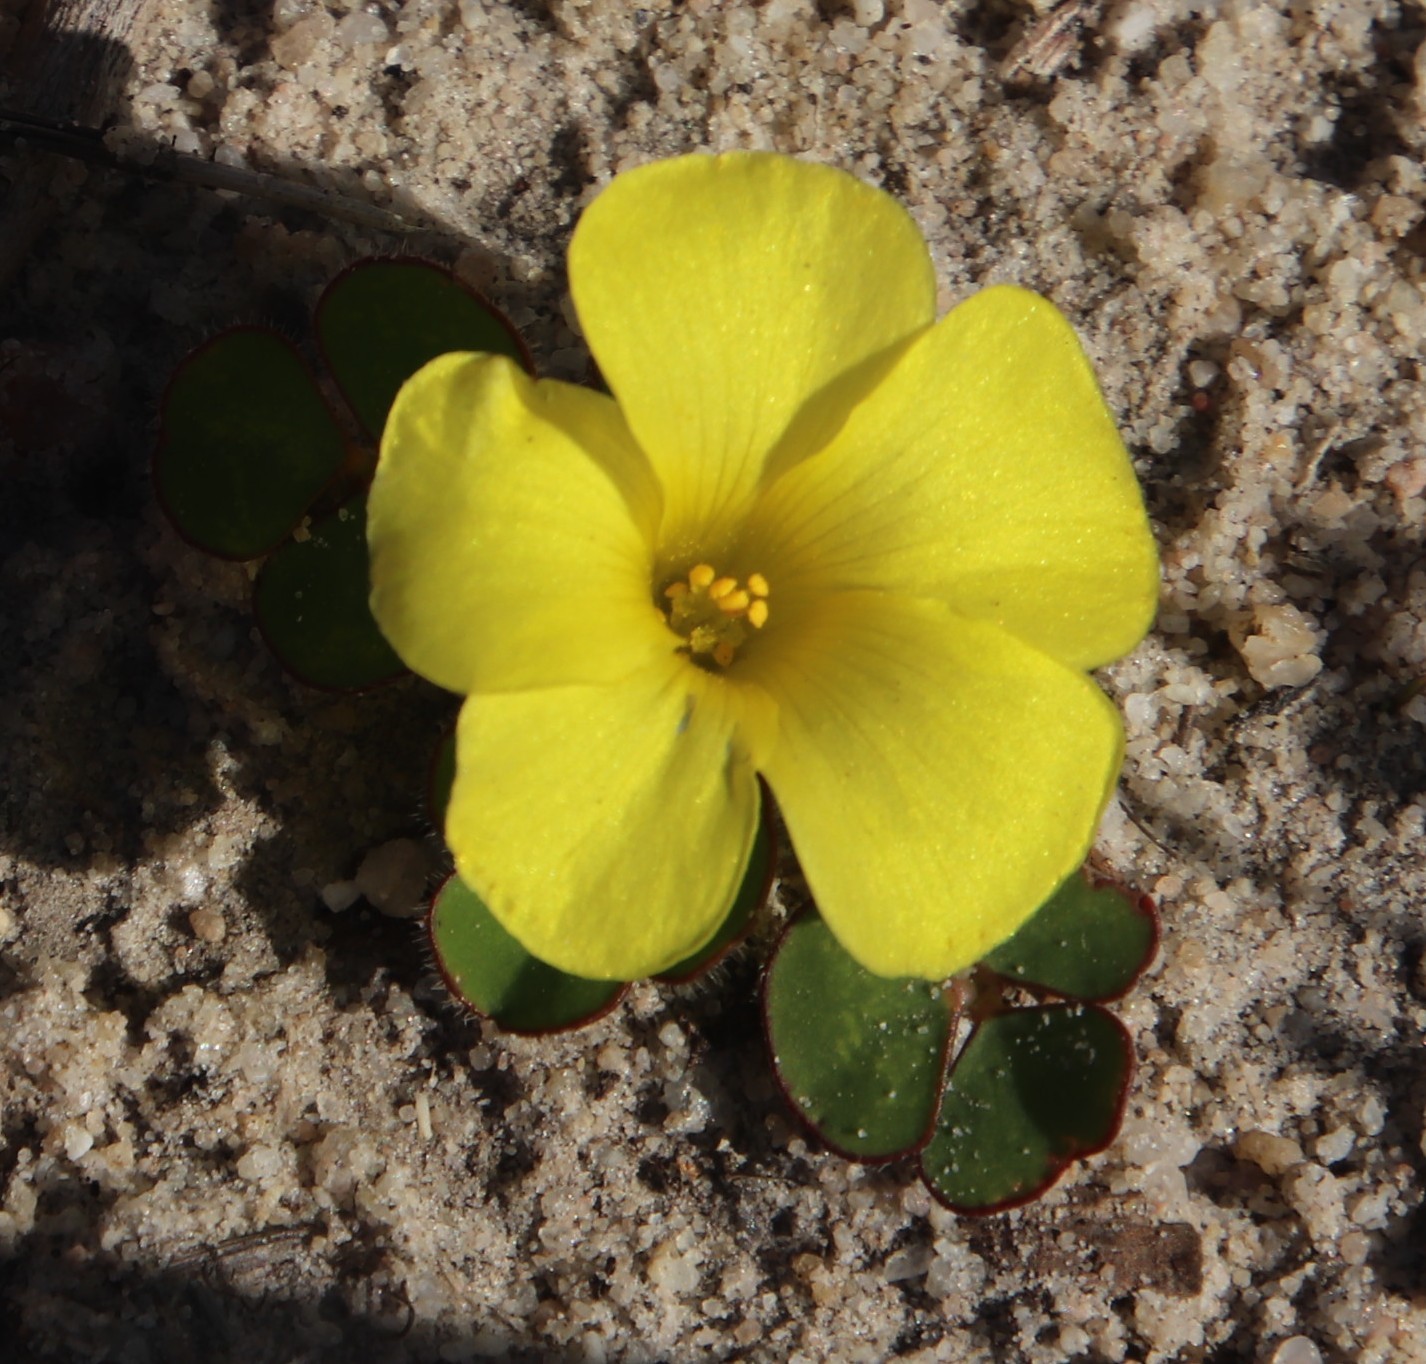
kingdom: Plantae
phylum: Tracheophyta
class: Magnoliopsida
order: Oxalidales
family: Oxalidaceae
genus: Oxalis
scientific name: Oxalis luteola
